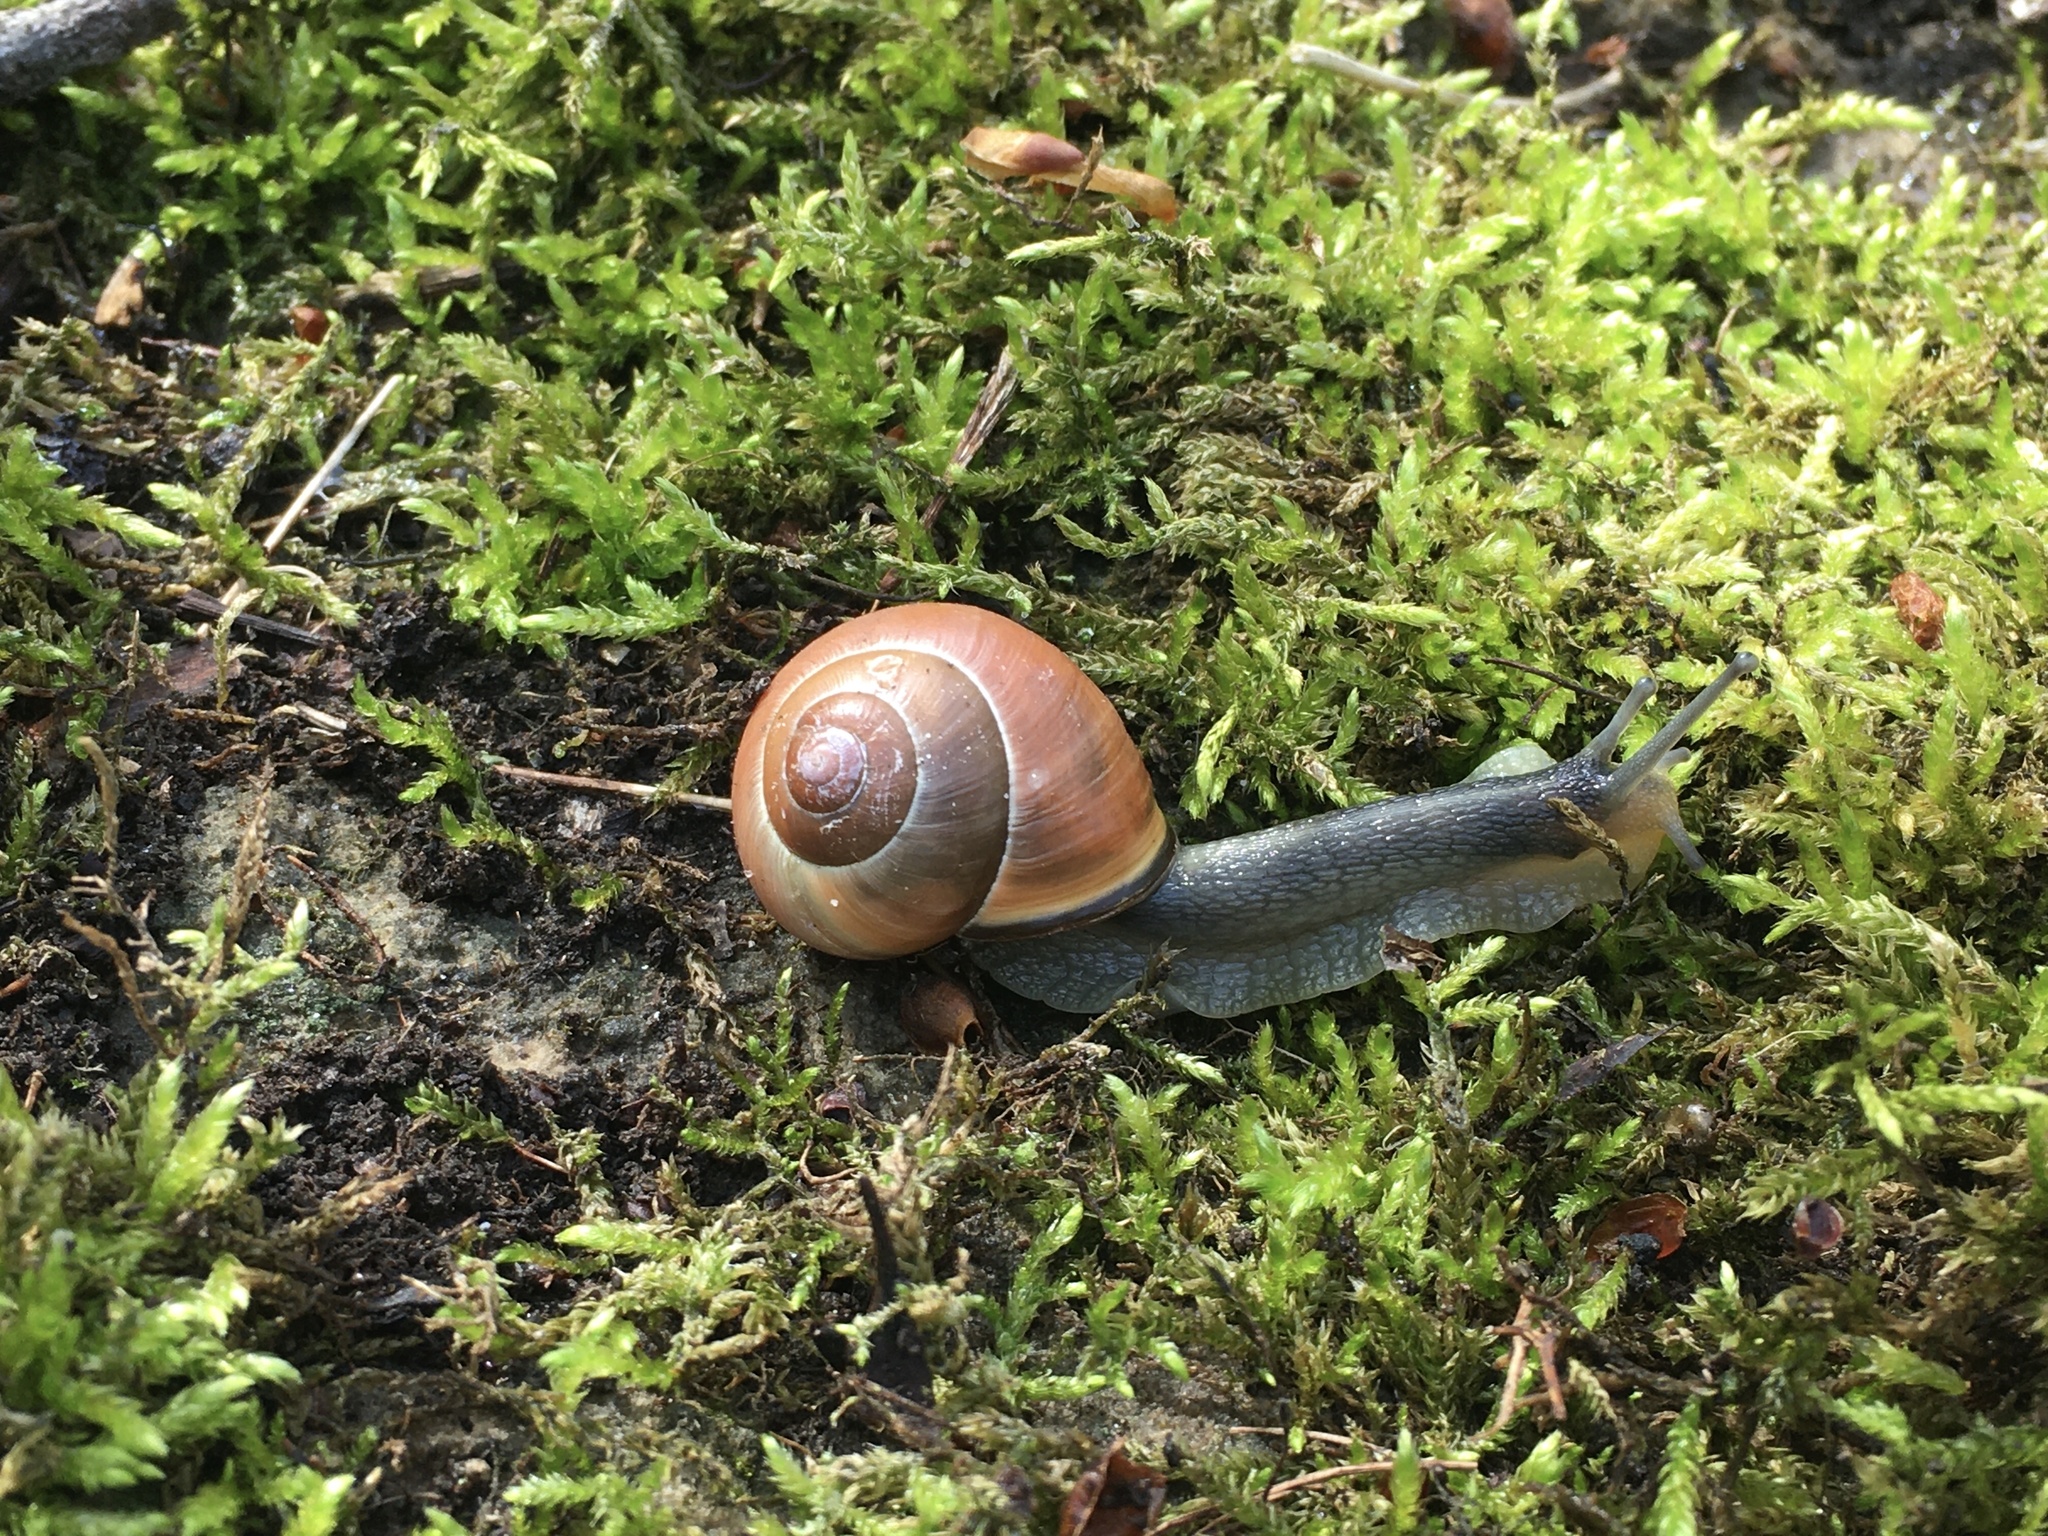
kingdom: Animalia
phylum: Mollusca
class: Gastropoda
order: Stylommatophora
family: Helicidae
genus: Cepaea
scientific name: Cepaea nemoralis
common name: Grovesnail
